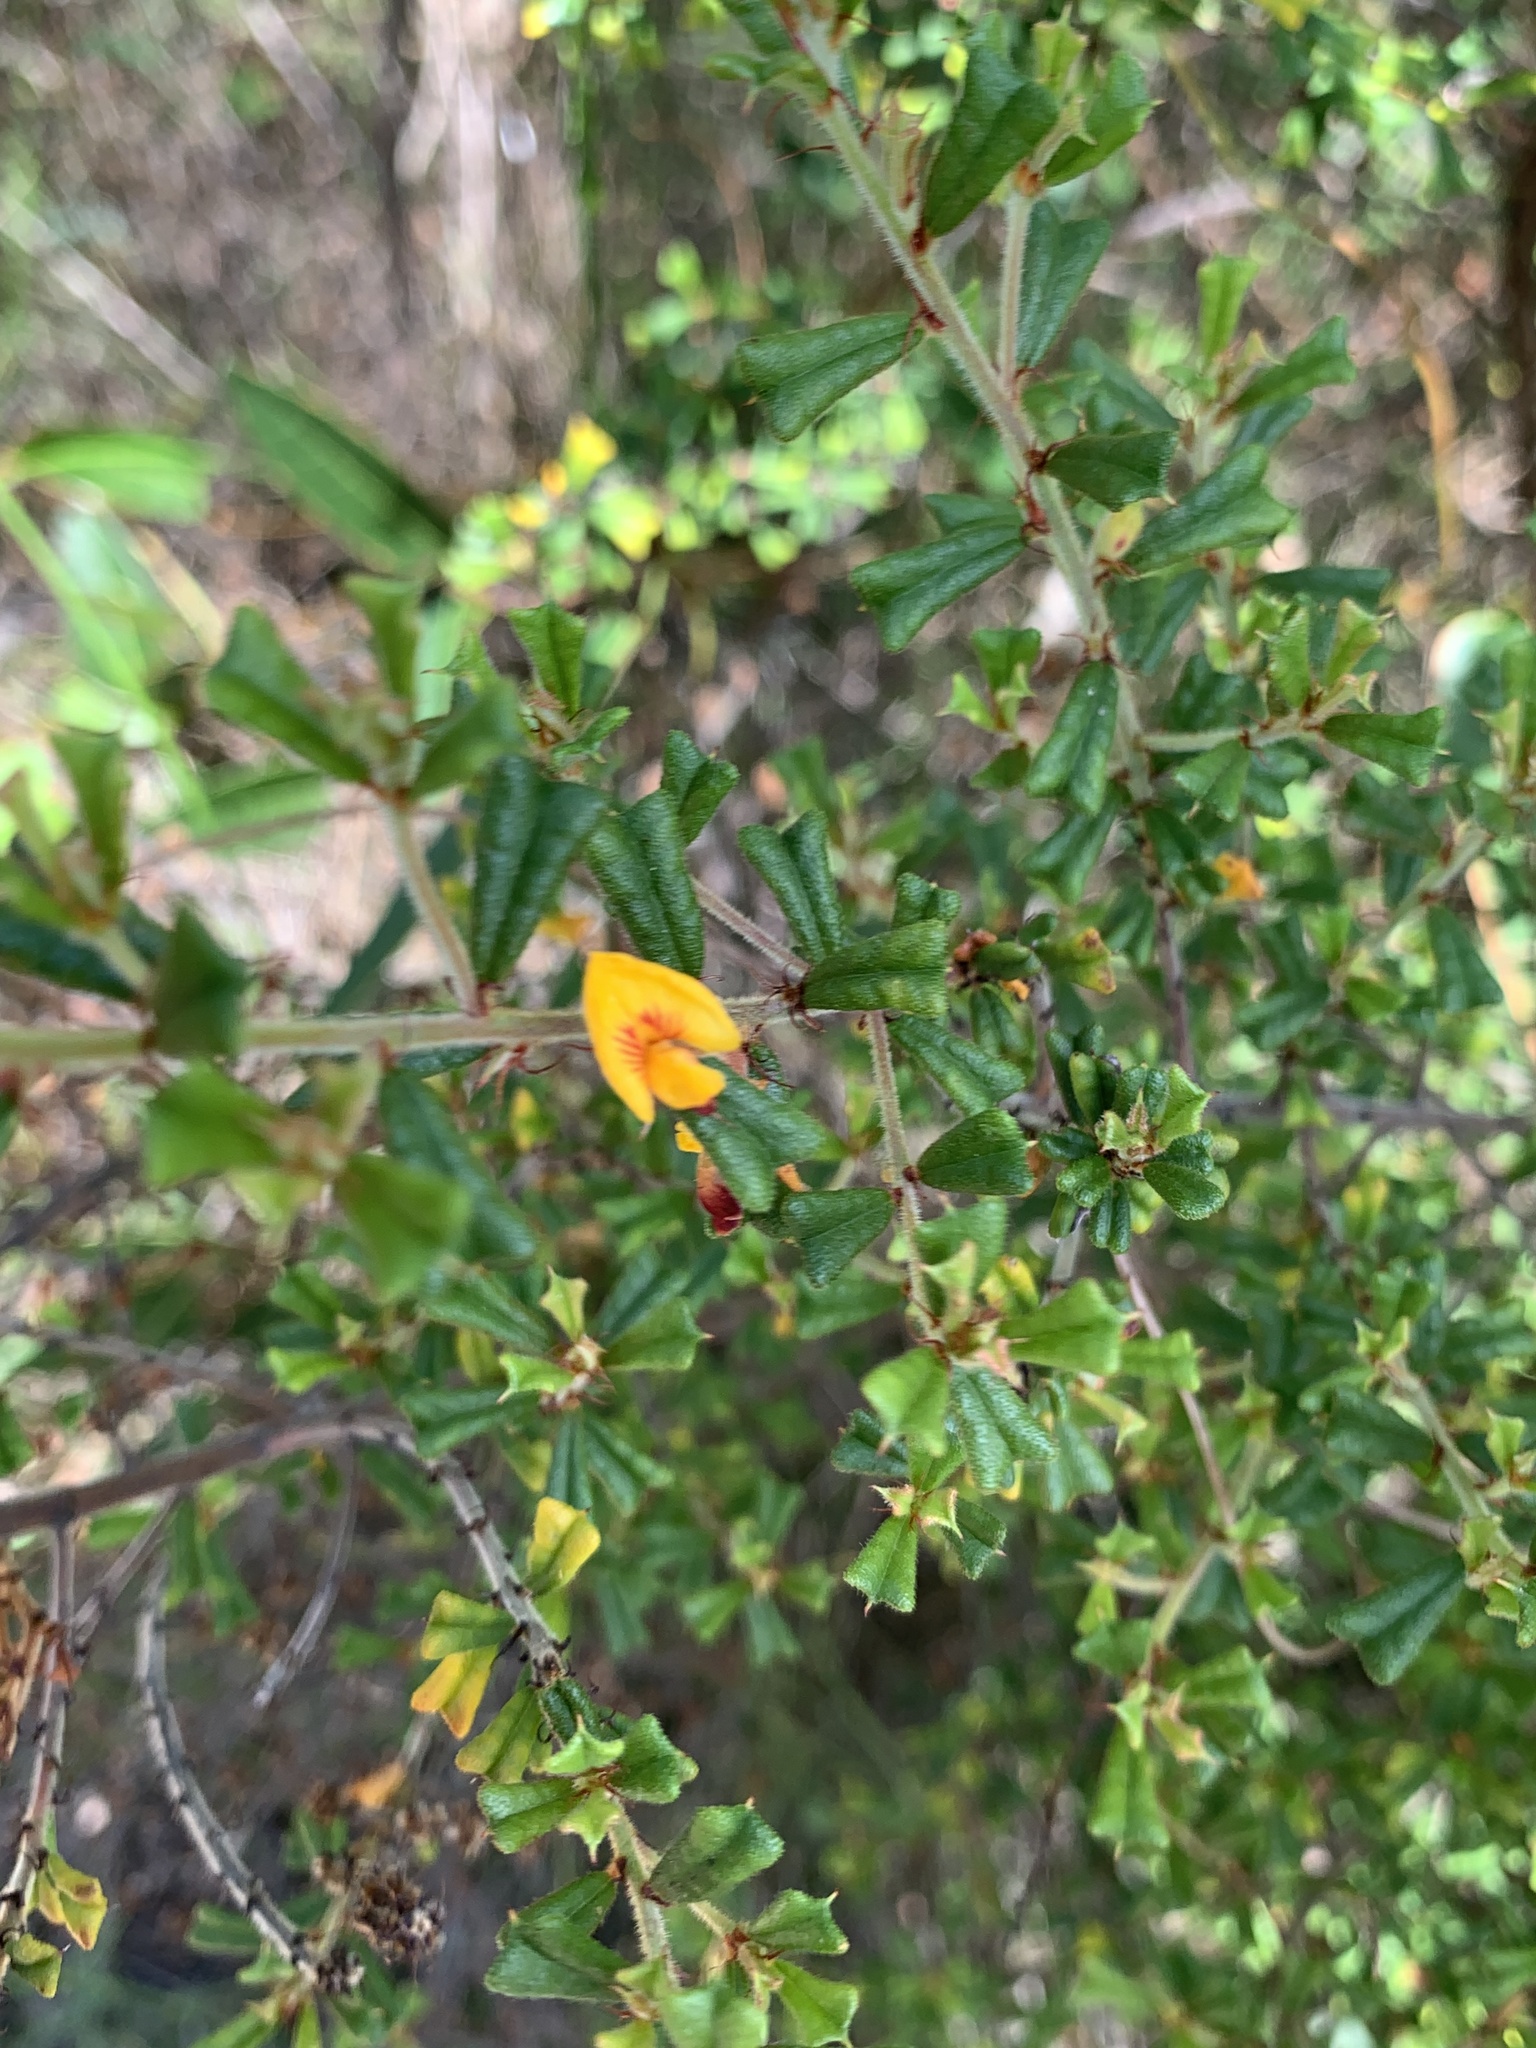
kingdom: Plantae
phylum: Tracheophyta
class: Magnoliopsida
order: Fabales
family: Fabaceae
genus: Pultenaea
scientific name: Pultenaea scabra
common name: Rough bush-pea
